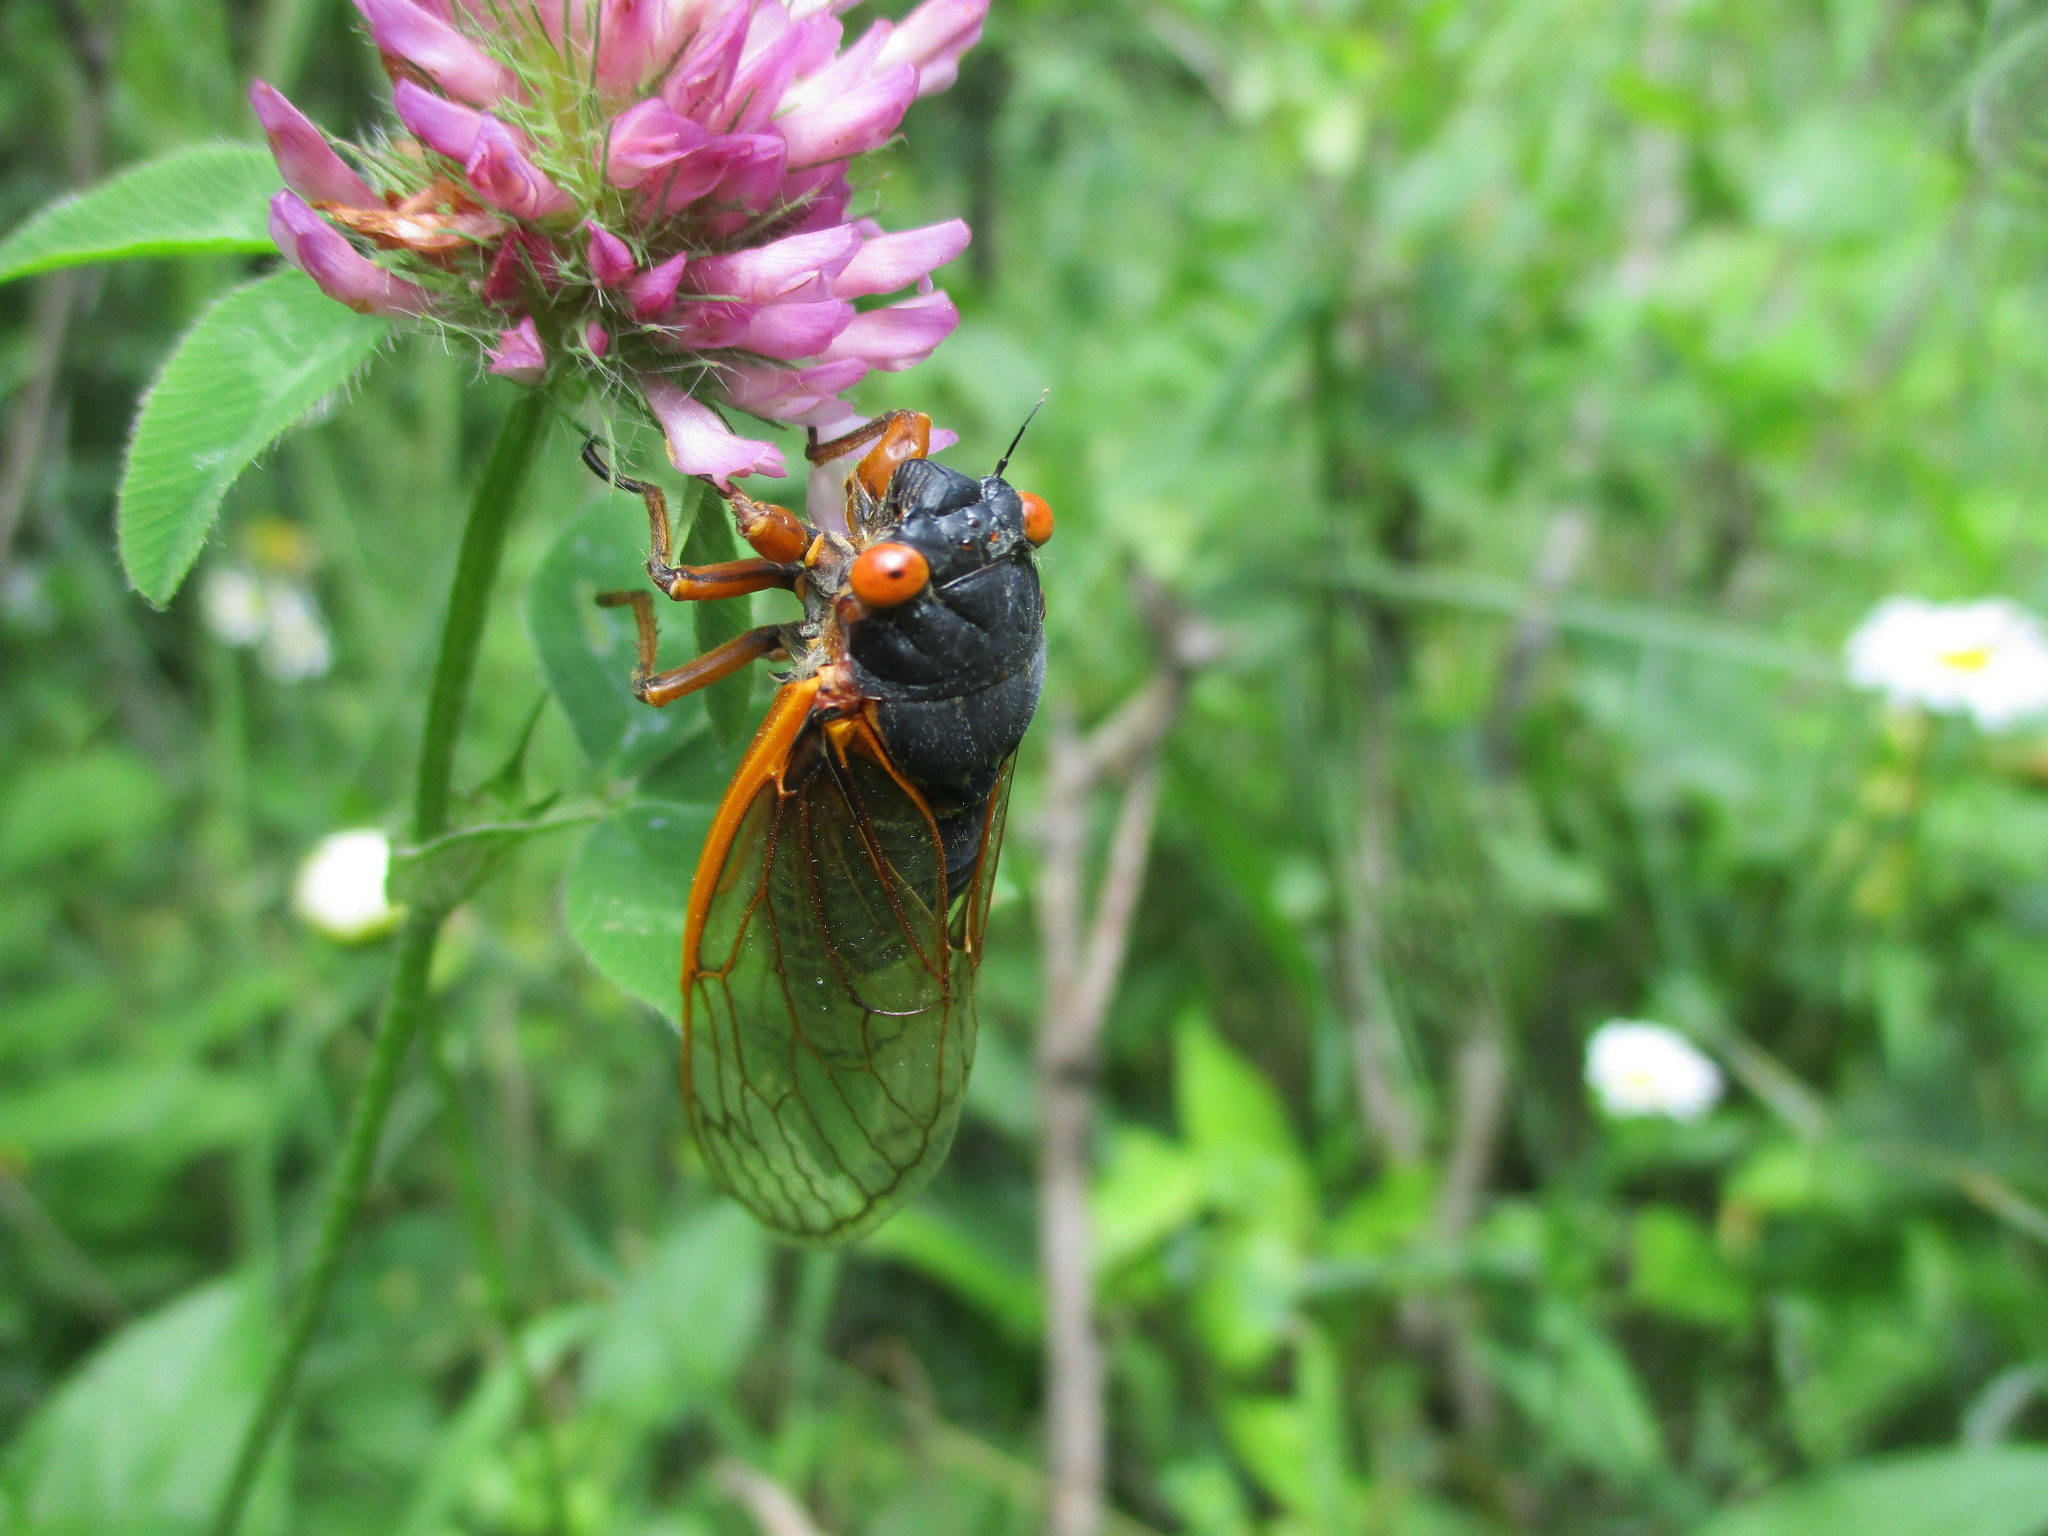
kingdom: Animalia
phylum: Arthropoda
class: Insecta
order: Hemiptera
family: Cicadidae
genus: Magicicada
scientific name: Magicicada septendecim
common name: Periodical cicada
